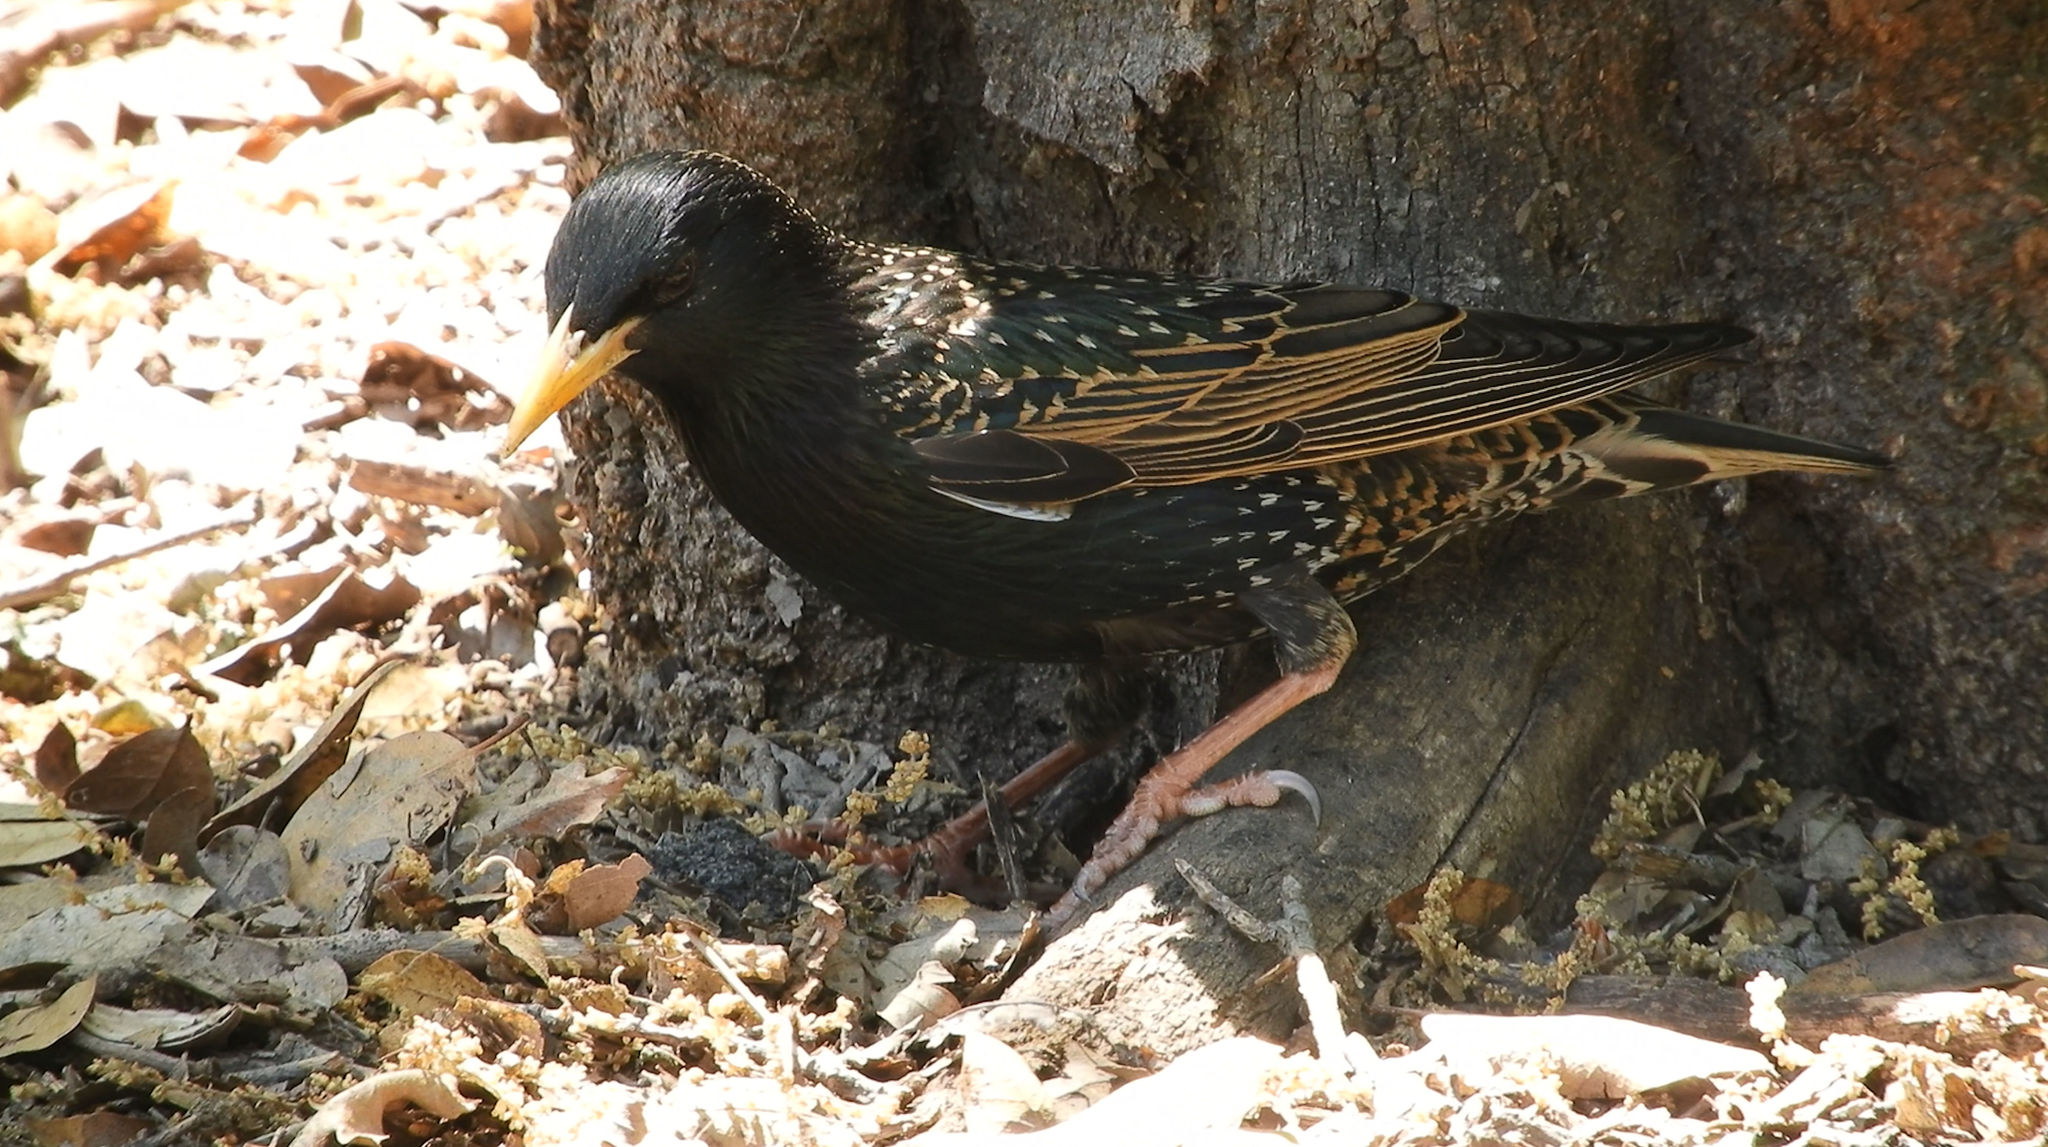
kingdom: Animalia
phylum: Chordata
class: Aves
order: Passeriformes
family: Sturnidae
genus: Sturnus
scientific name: Sturnus vulgaris
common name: Common starling
